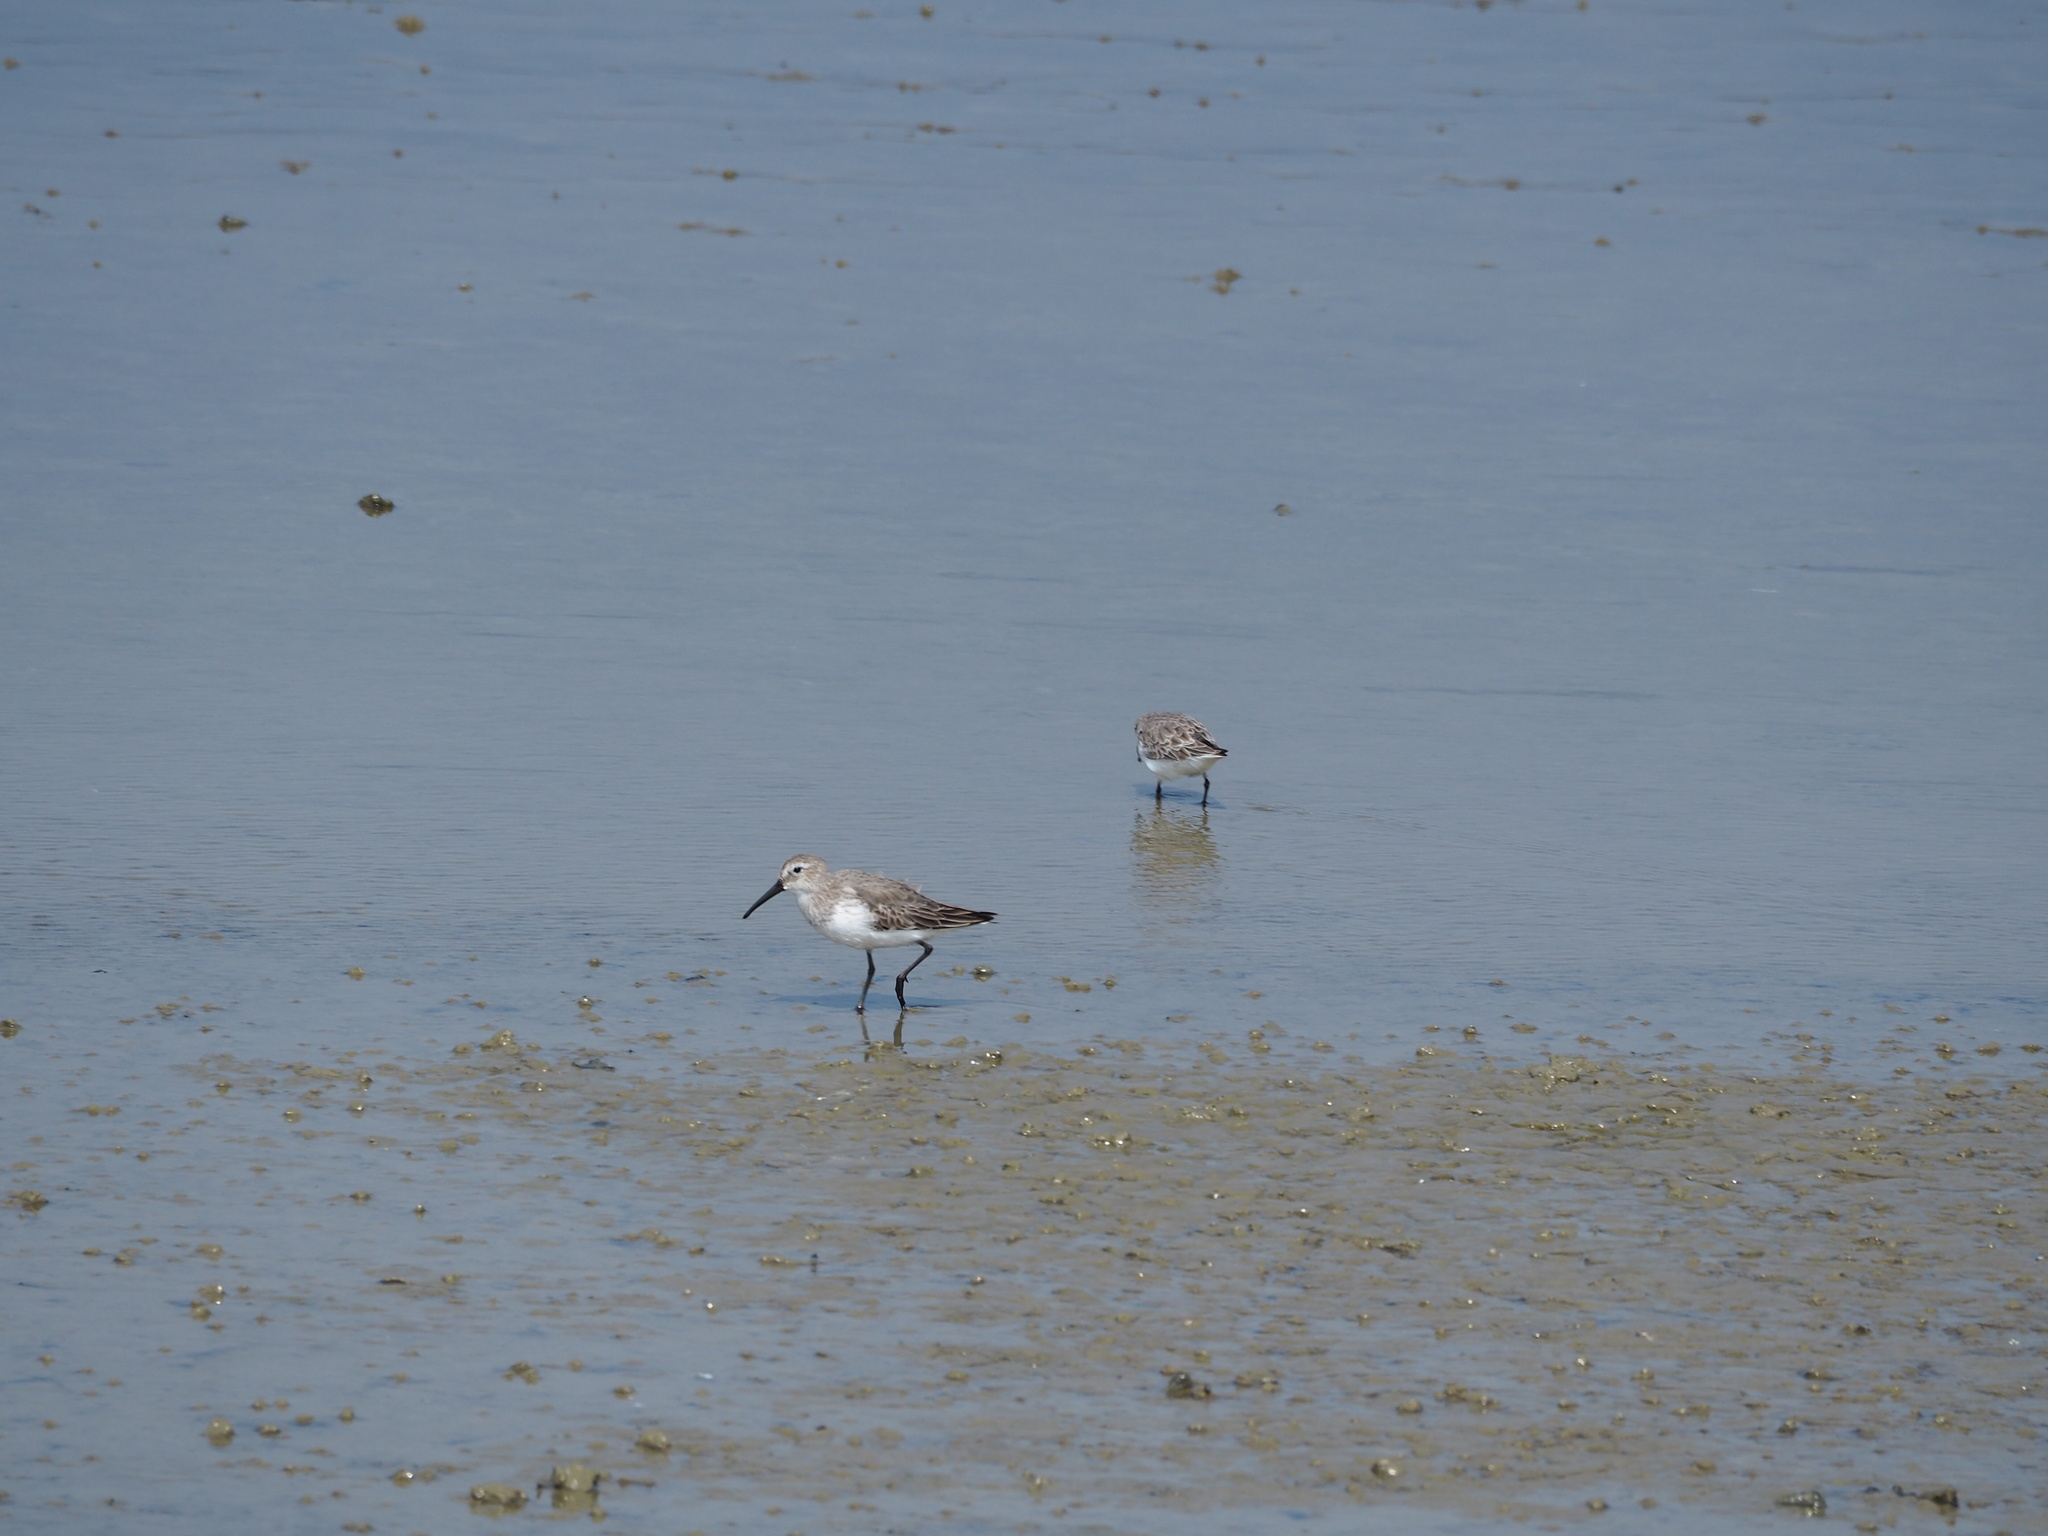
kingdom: Animalia
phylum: Chordata
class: Aves
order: Charadriiformes
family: Scolopacidae
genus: Calidris
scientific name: Calidris alpina
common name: Dunlin
